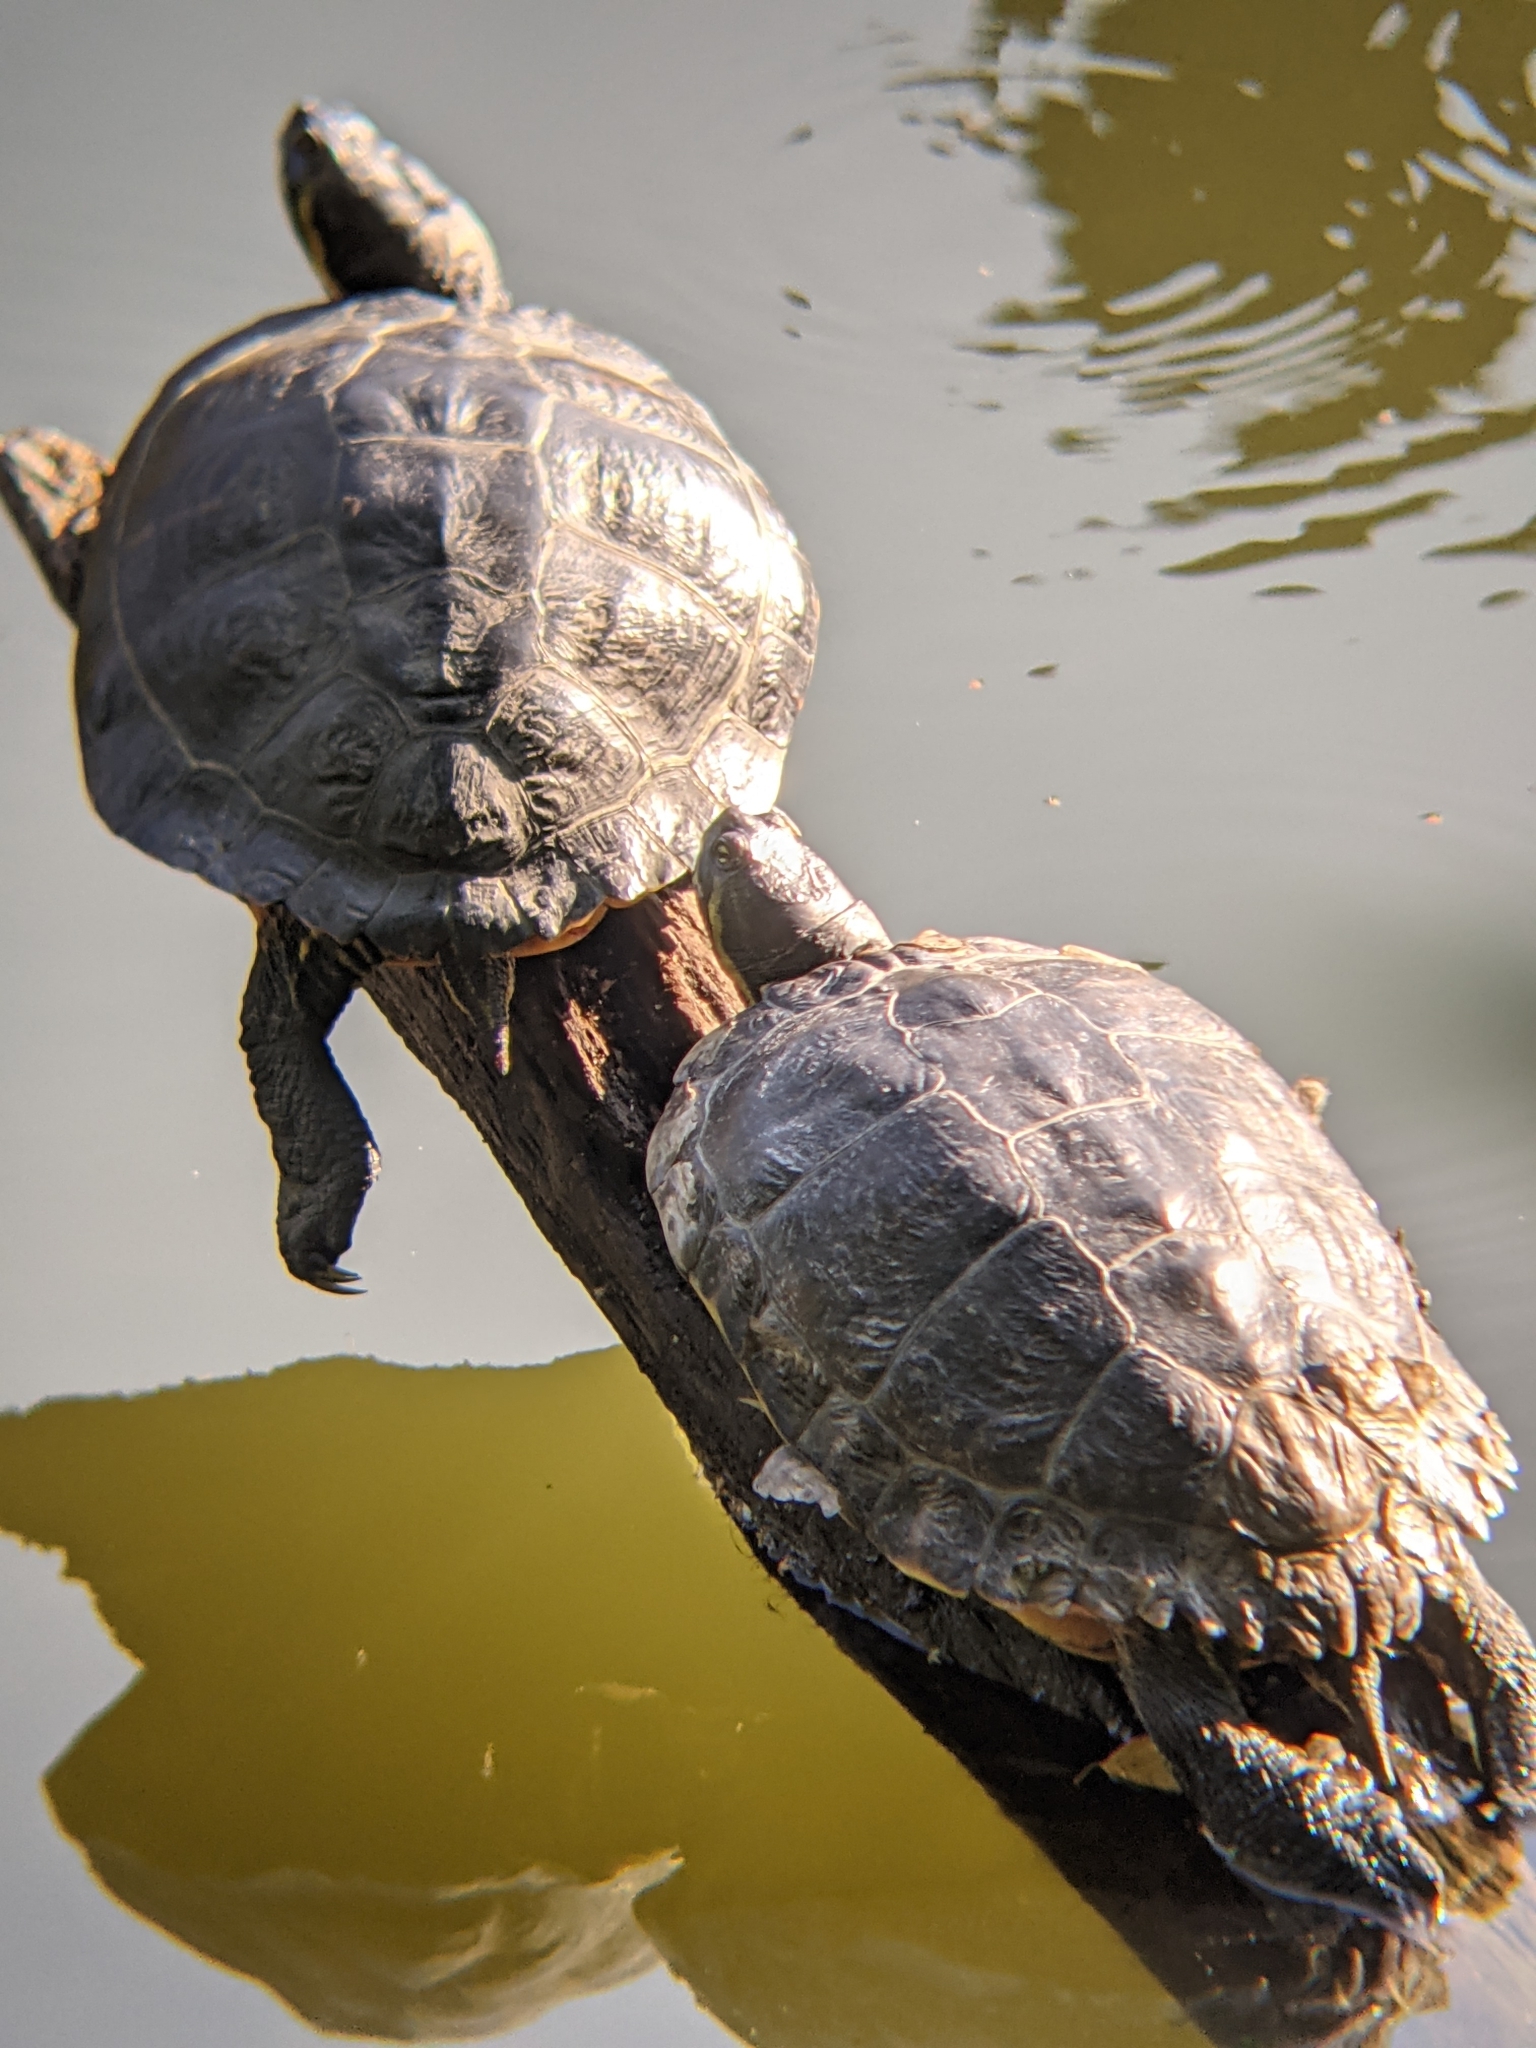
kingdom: Animalia
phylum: Chordata
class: Testudines
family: Emydidae
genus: Trachemys
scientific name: Trachemys scripta
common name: Slider
